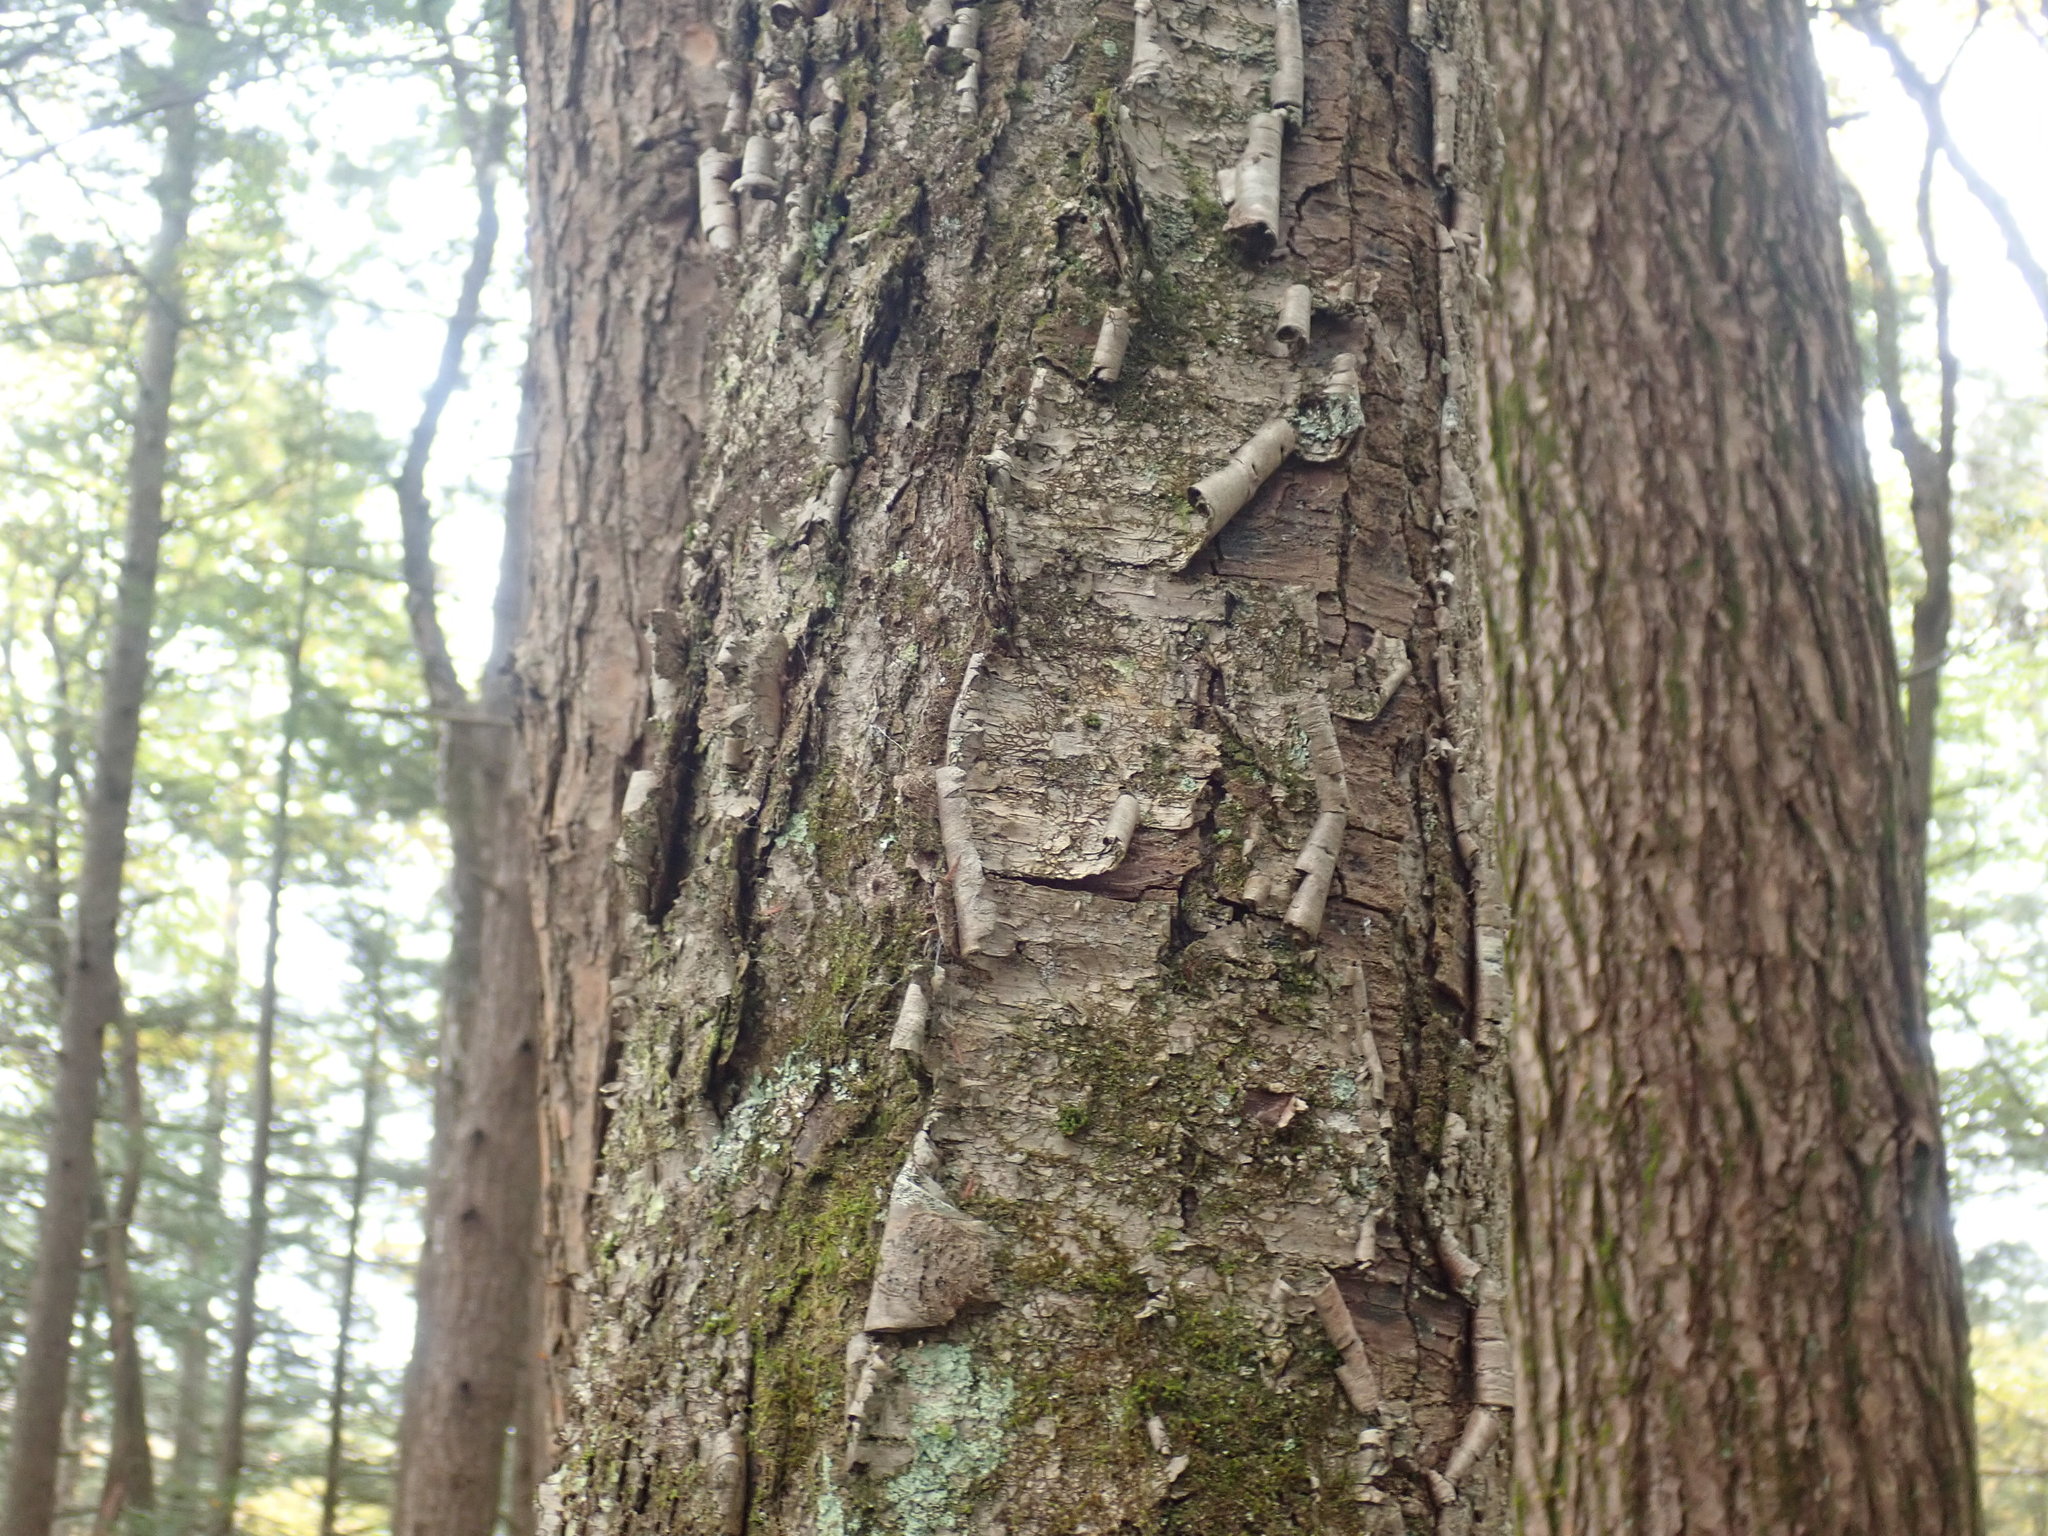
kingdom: Plantae
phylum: Tracheophyta
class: Magnoliopsida
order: Fagales
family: Betulaceae
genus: Betula
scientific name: Betula alleghaniensis
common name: Yellow birch
